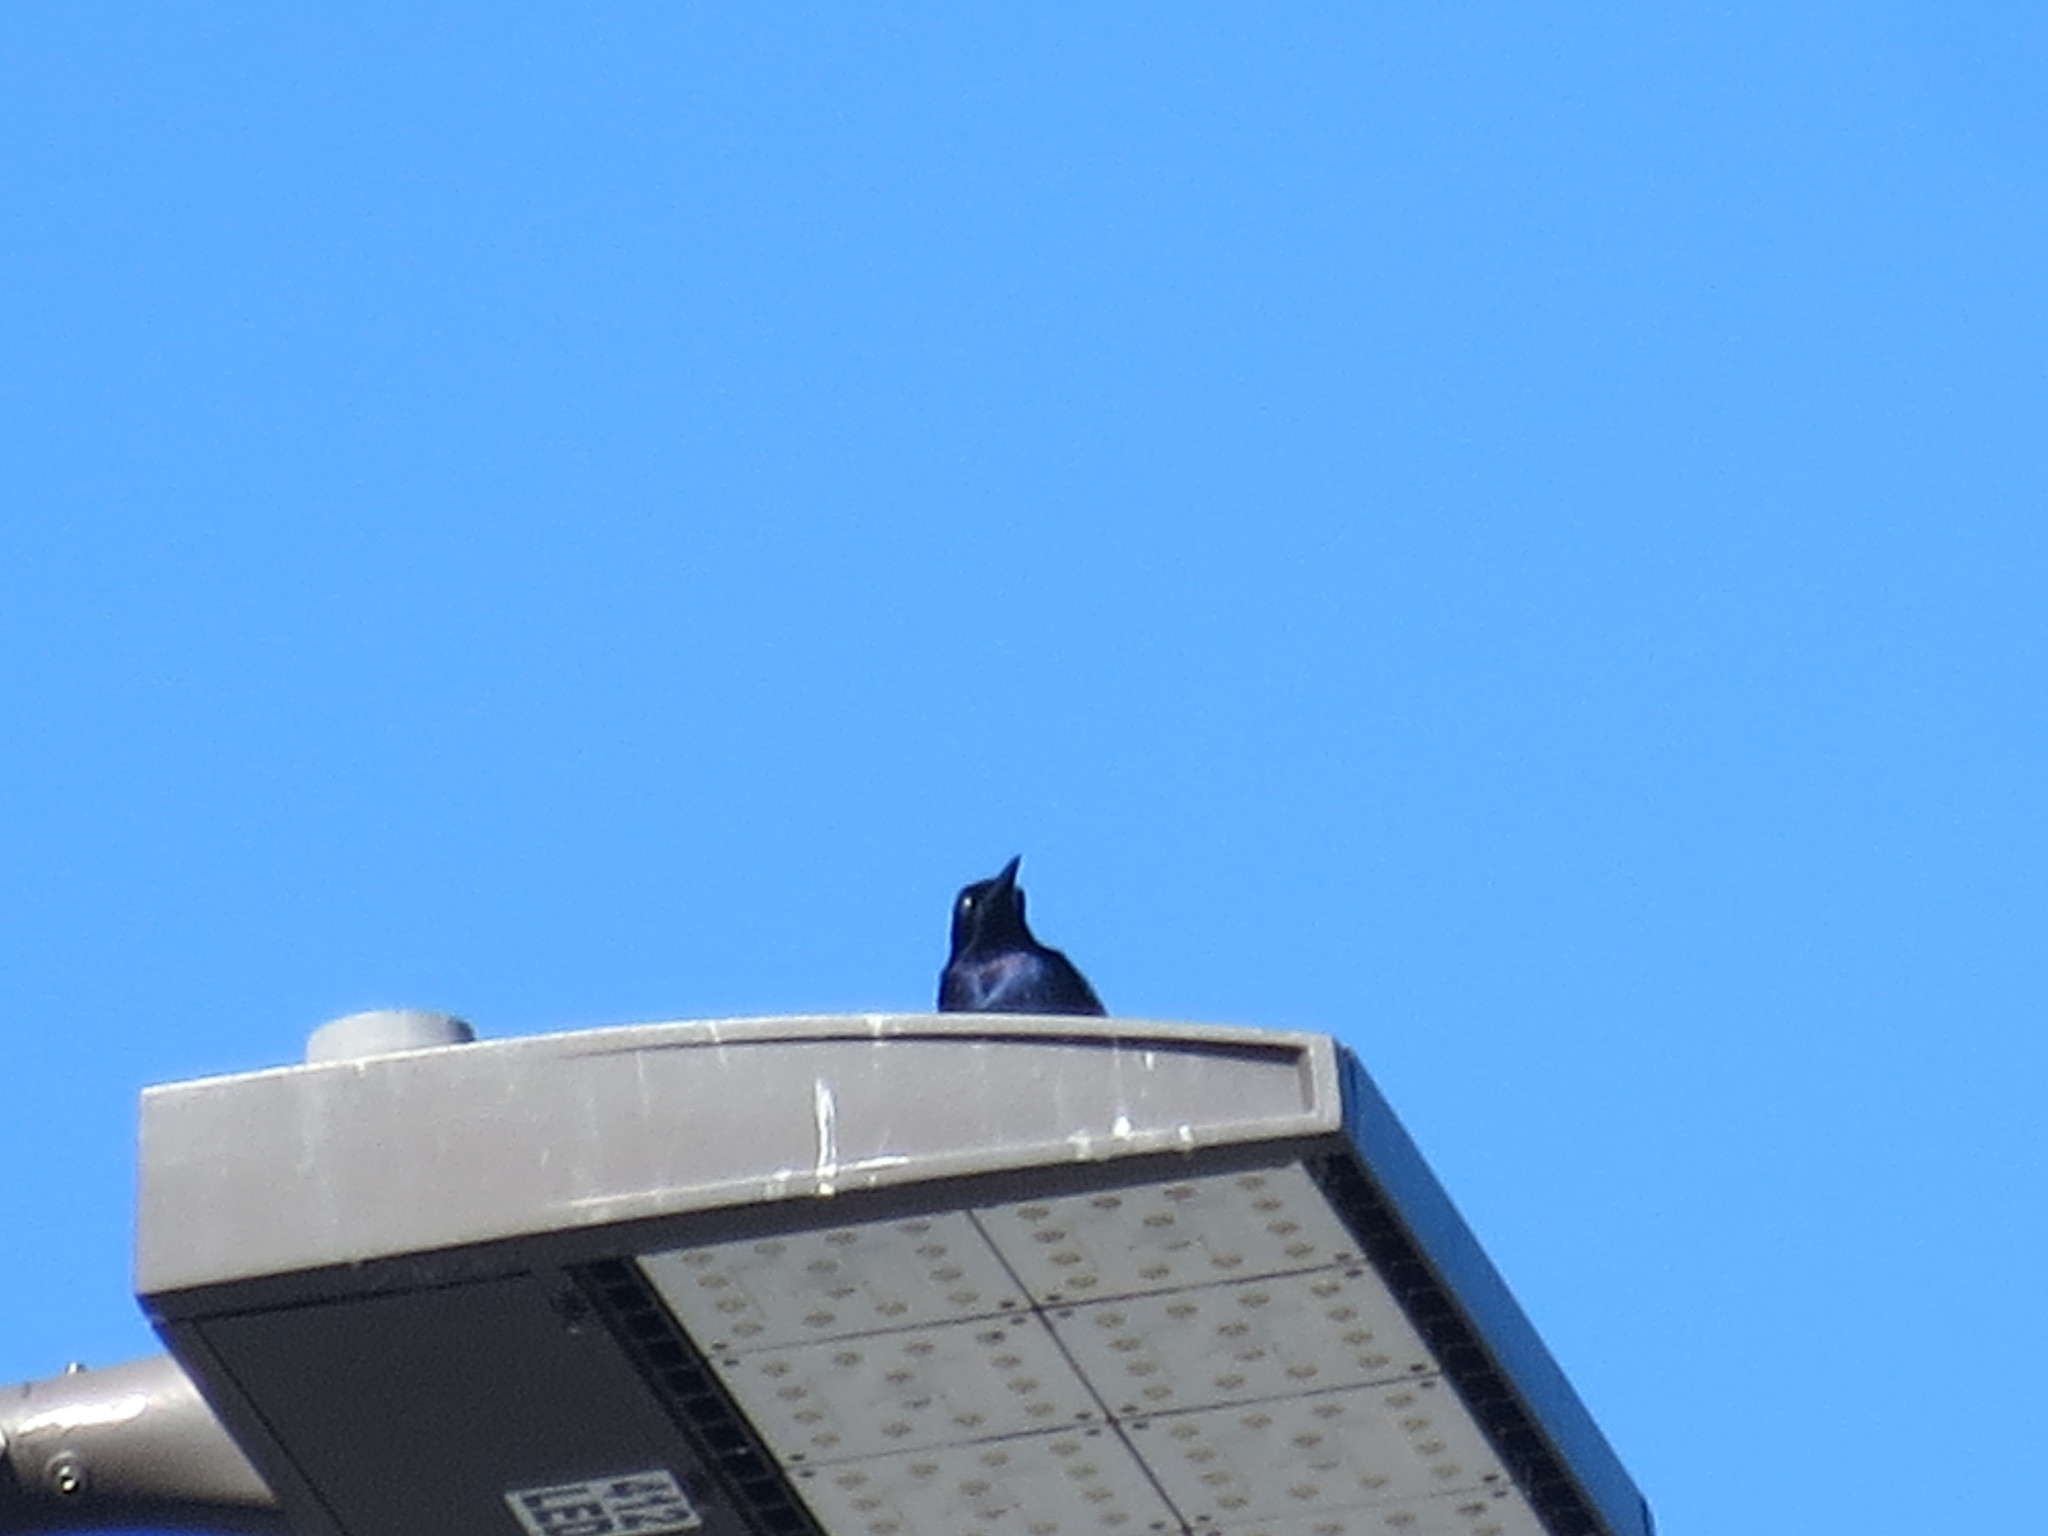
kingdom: Animalia
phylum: Chordata
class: Aves
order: Passeriformes
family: Icteridae
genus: Quiscalus
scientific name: Quiscalus major
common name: Boat-tailed grackle
